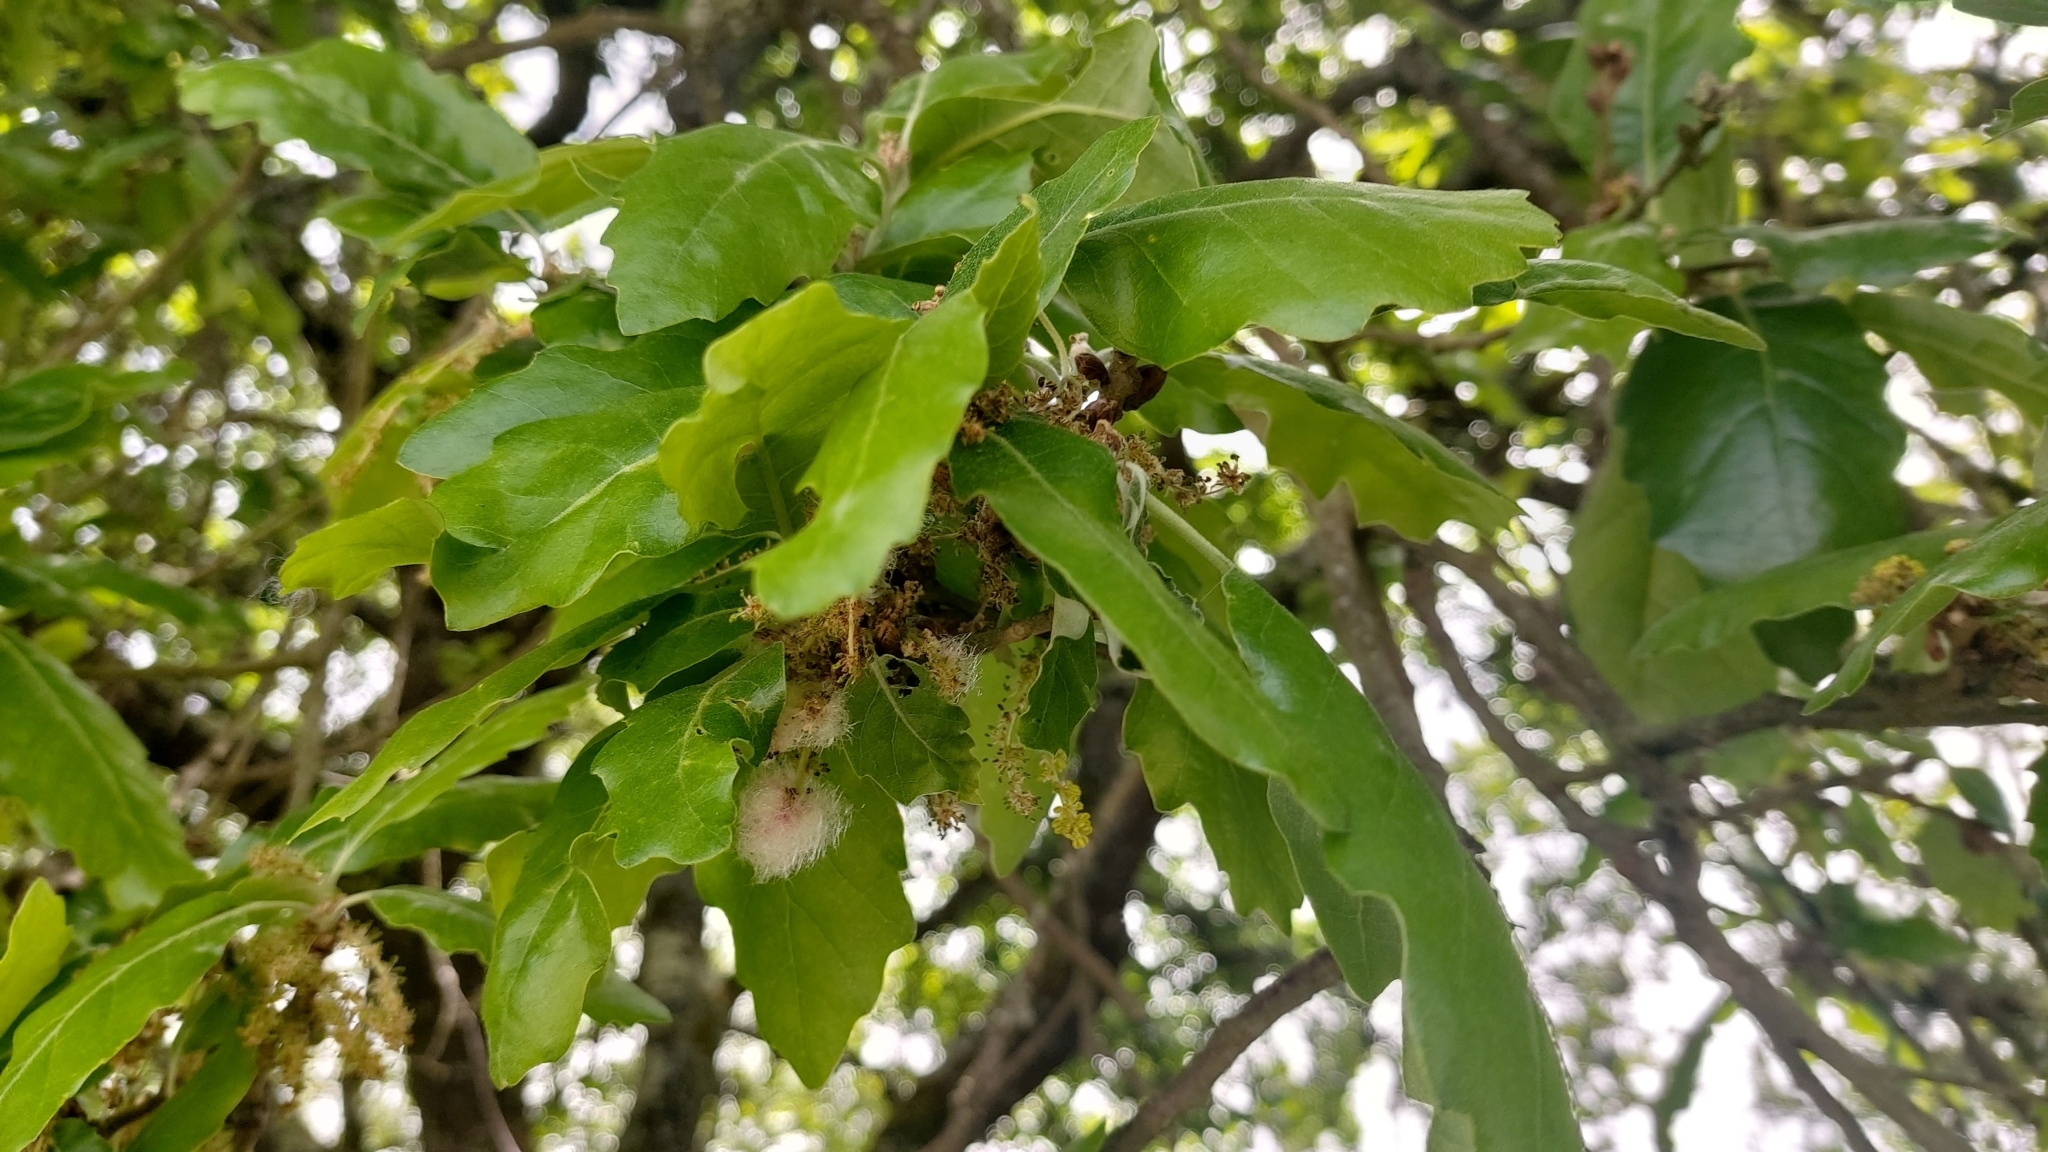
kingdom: Animalia
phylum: Arthropoda
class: Insecta
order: Hymenoptera
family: Cynipidae
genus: Andricus
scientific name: Andricus quercusramuli
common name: Cottonwool gall
